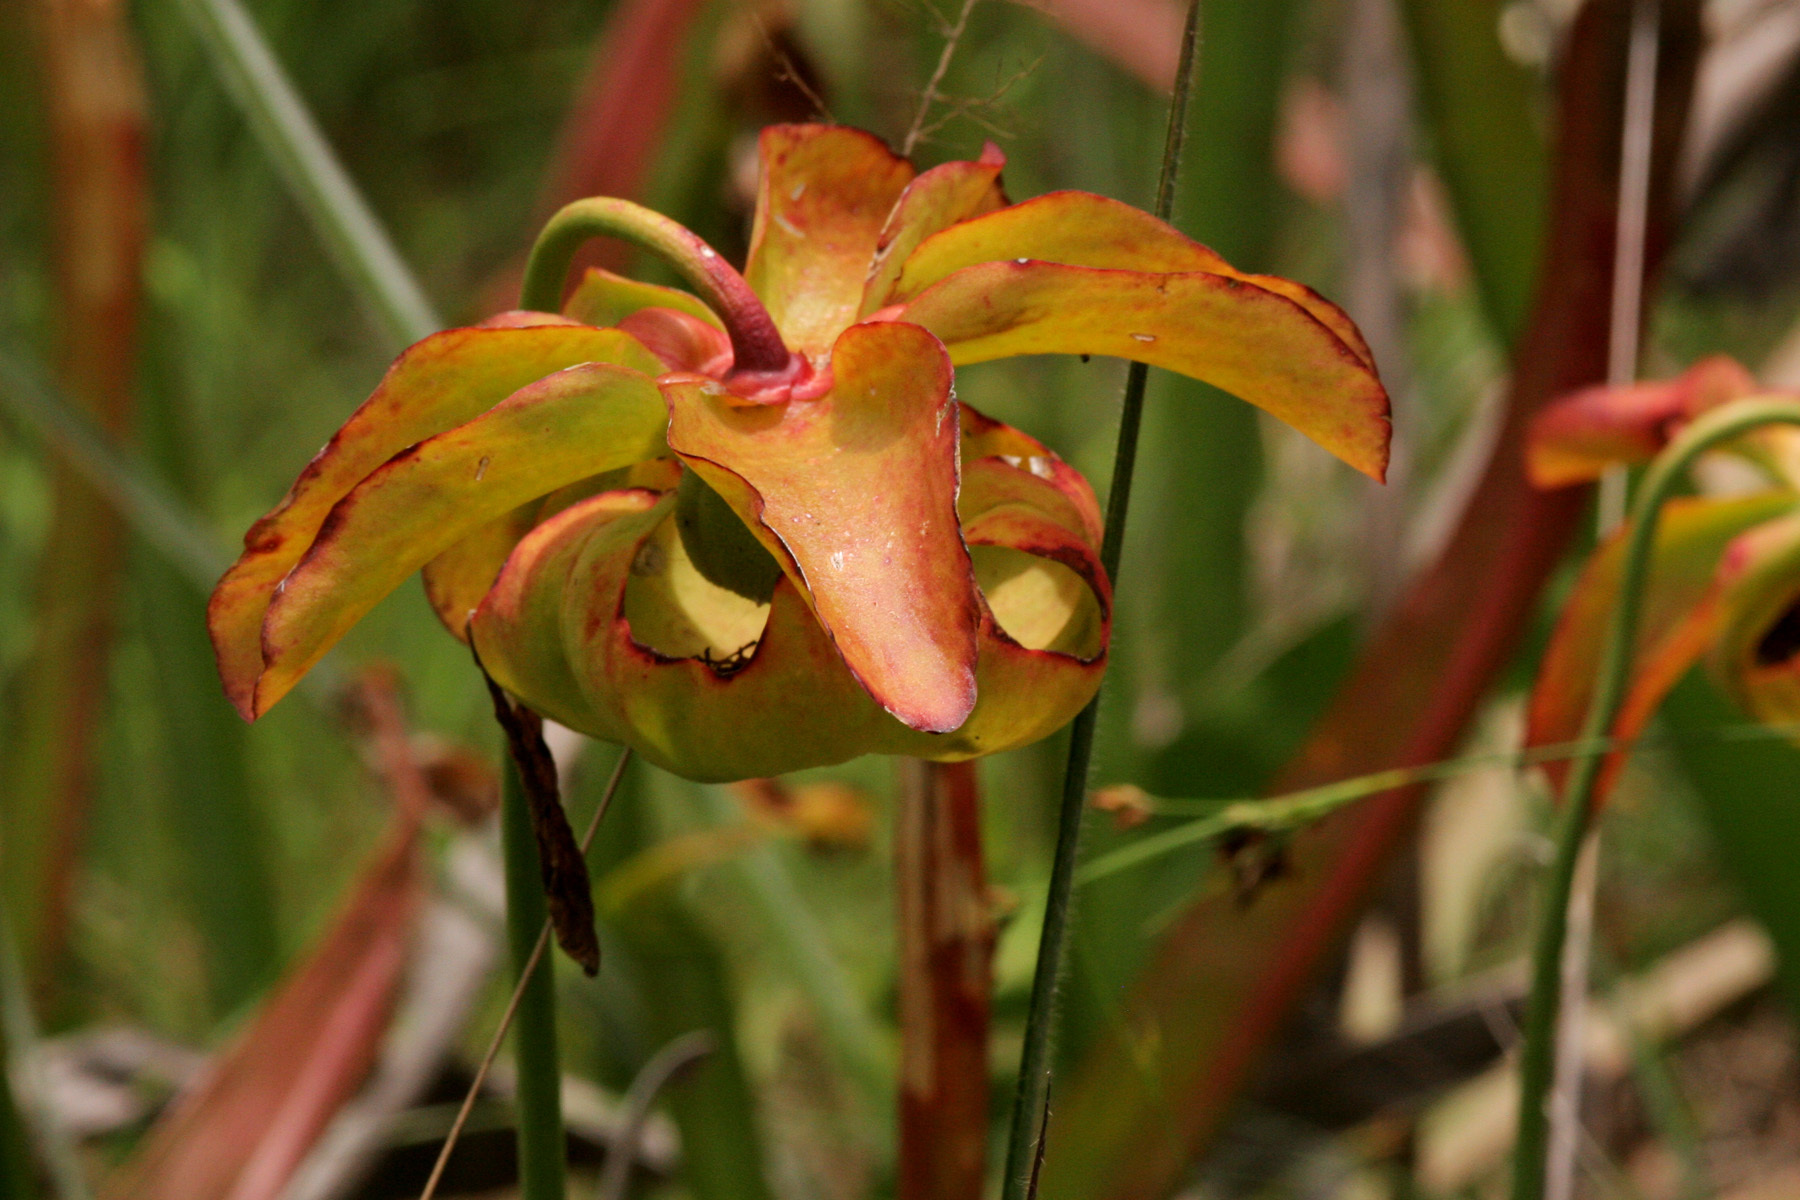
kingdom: Plantae
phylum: Tracheophyta
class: Magnoliopsida
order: Ericales
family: Sarraceniaceae
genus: Sarracenia
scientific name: Sarracenia alata
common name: Yellow trumpets
